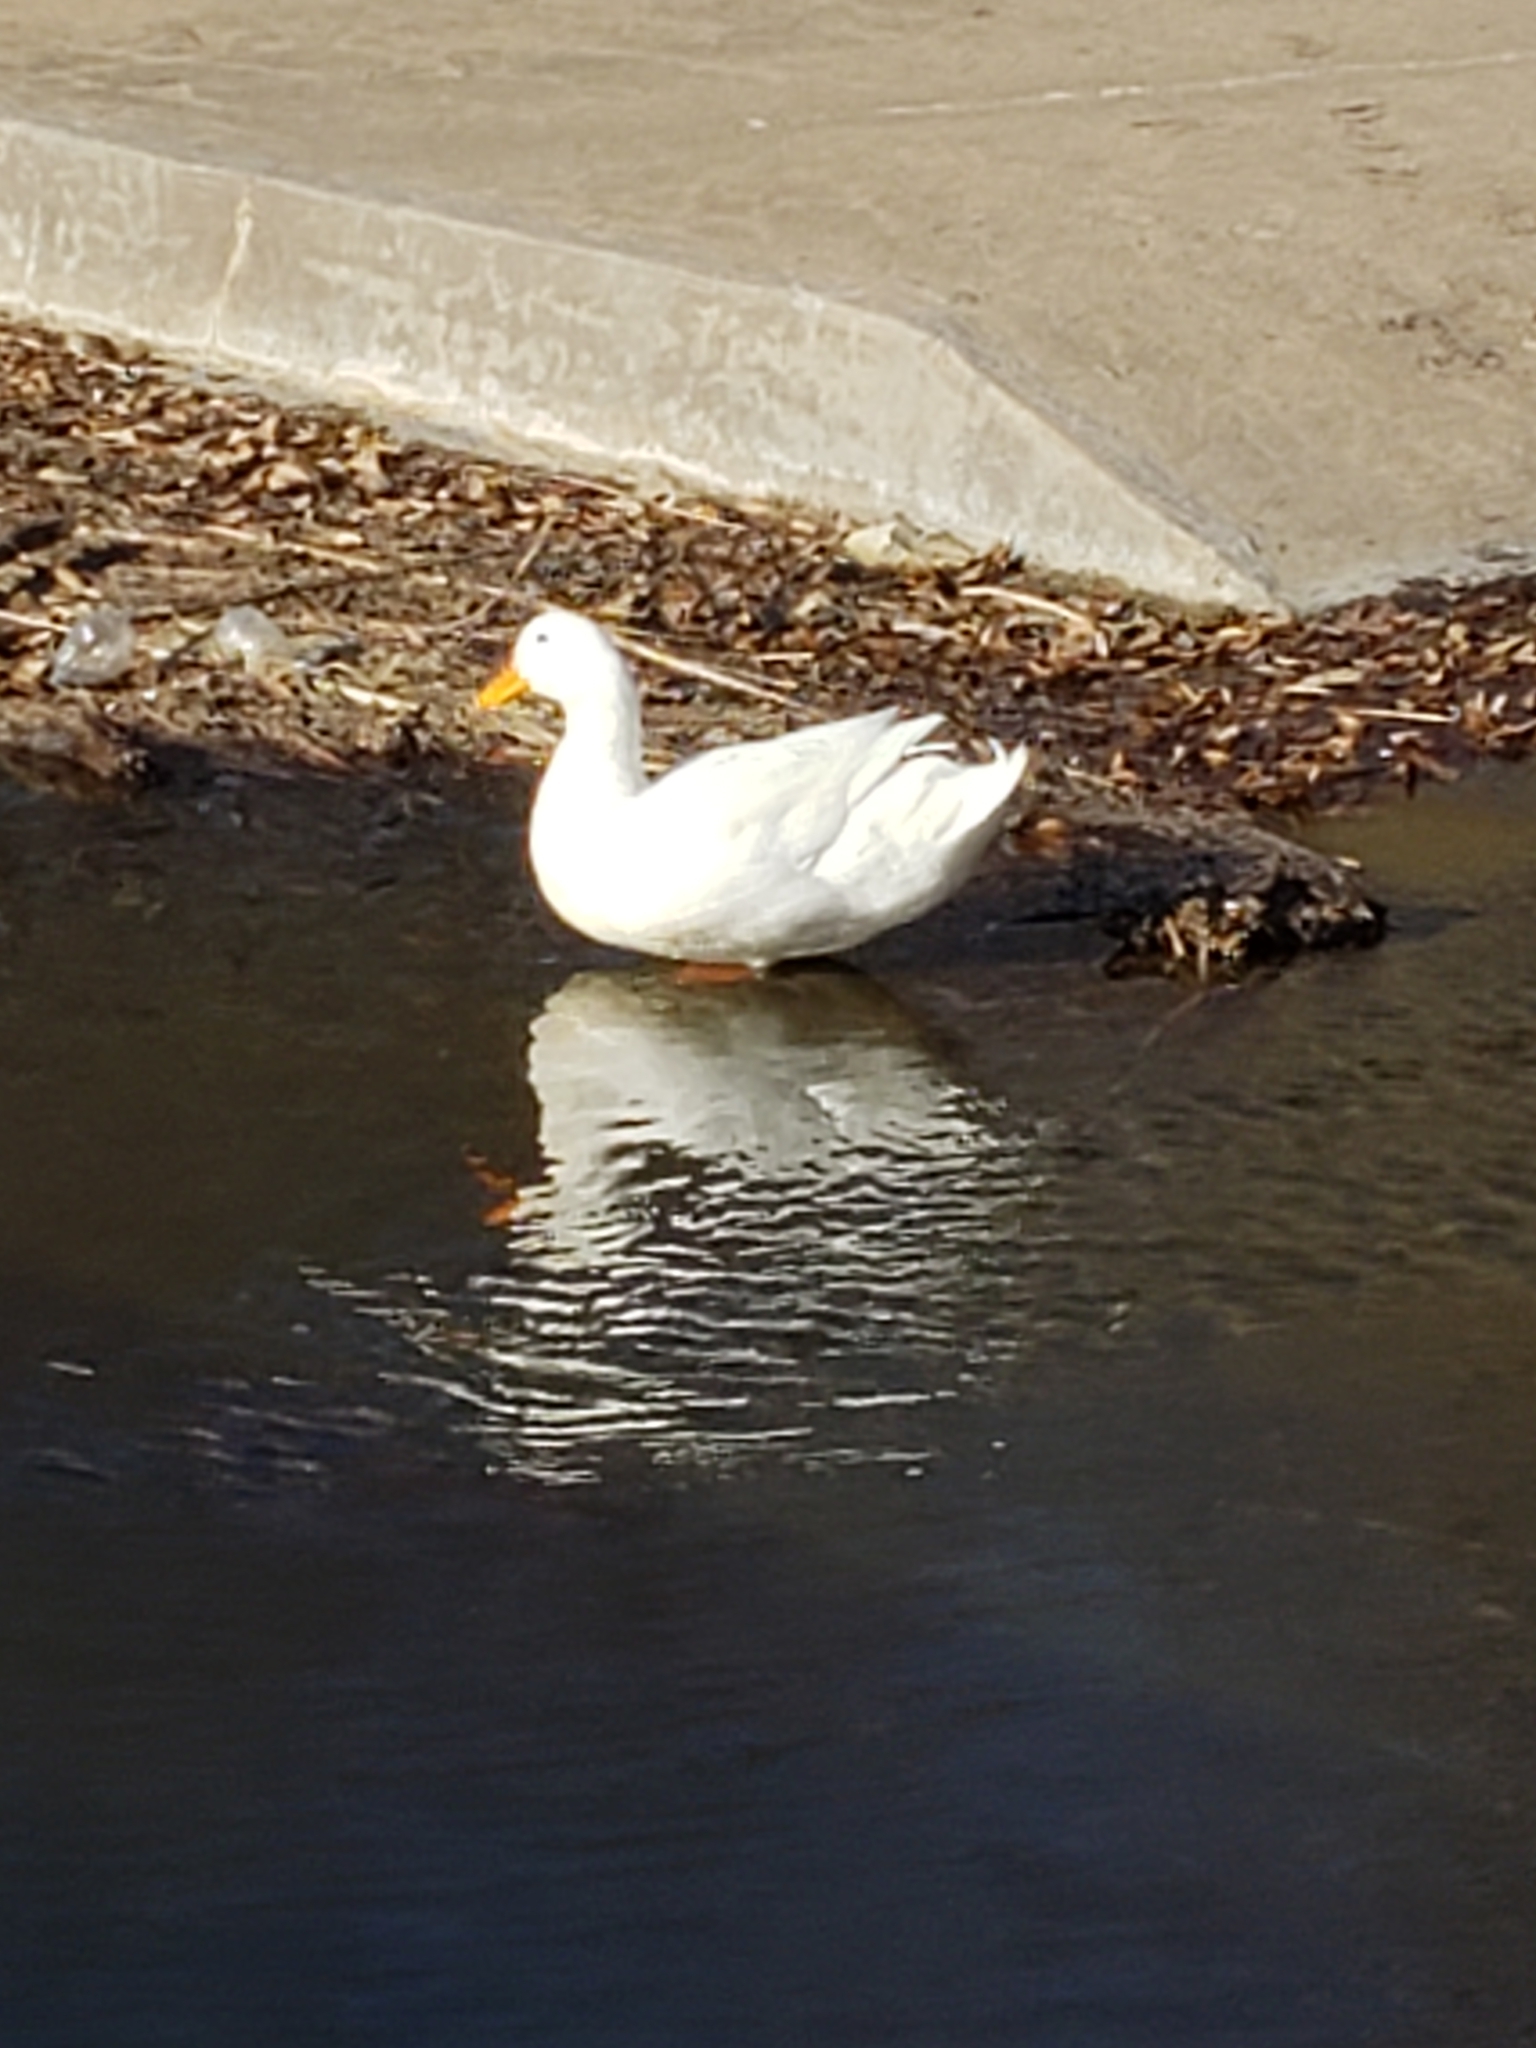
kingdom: Animalia
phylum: Chordata
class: Aves
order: Anseriformes
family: Anatidae
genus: Anas
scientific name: Anas platyrhynchos
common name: Mallard
